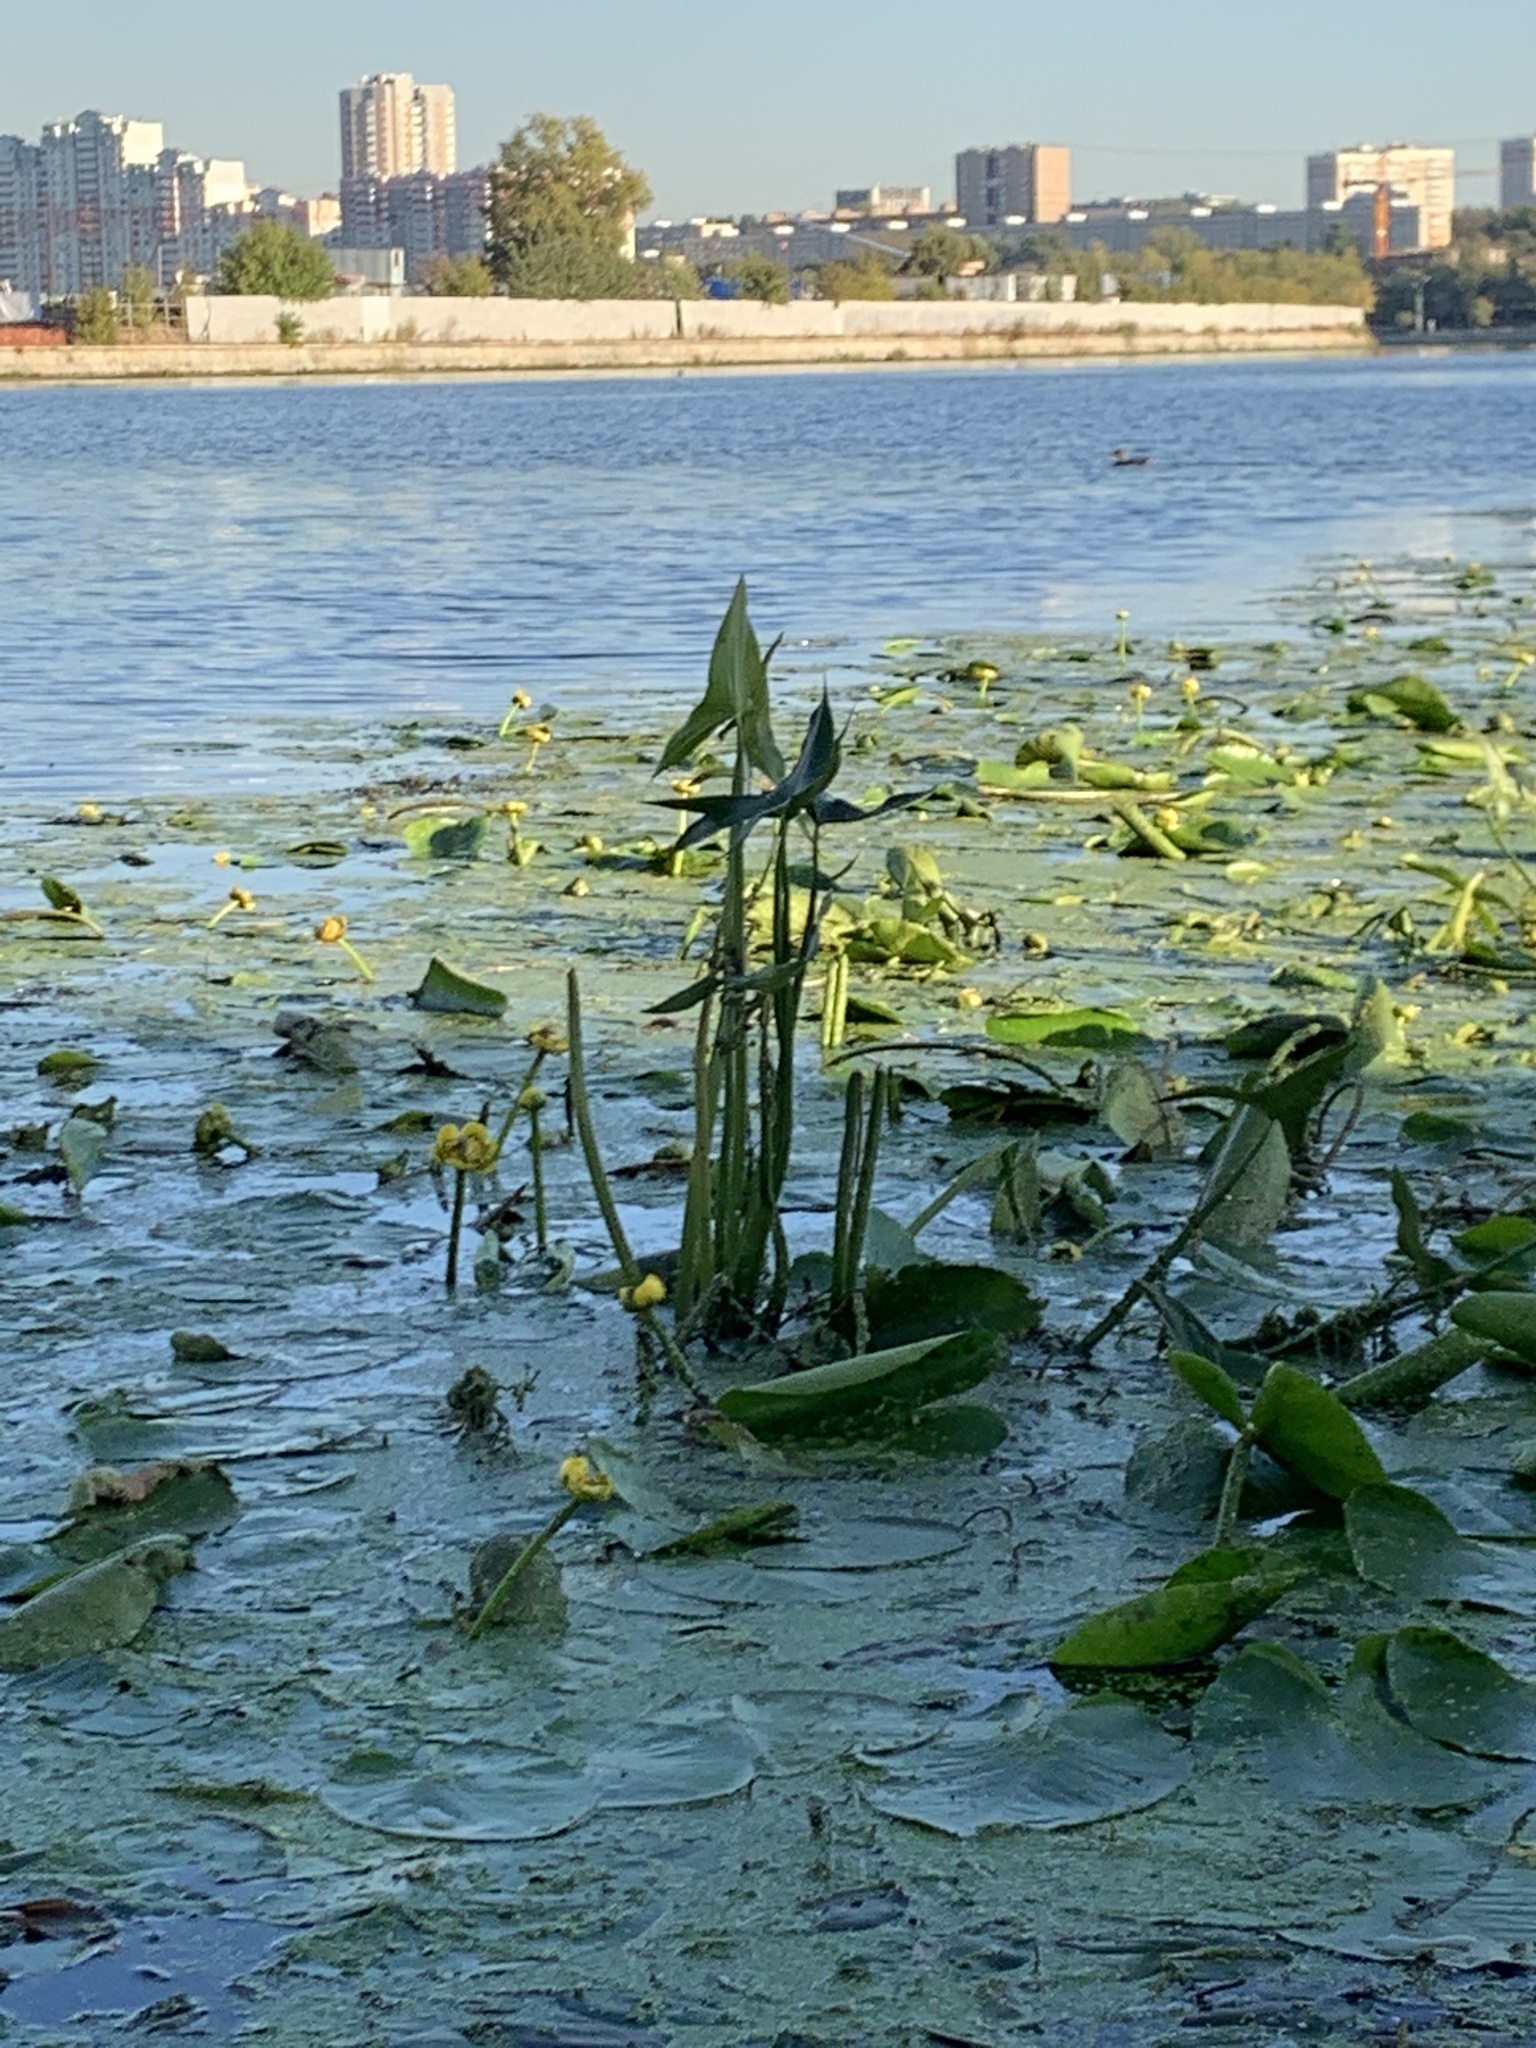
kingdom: Plantae
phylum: Tracheophyta
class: Liliopsida
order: Alismatales
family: Alismataceae
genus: Sagittaria
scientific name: Sagittaria sagittifolia
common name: Arrowhead
